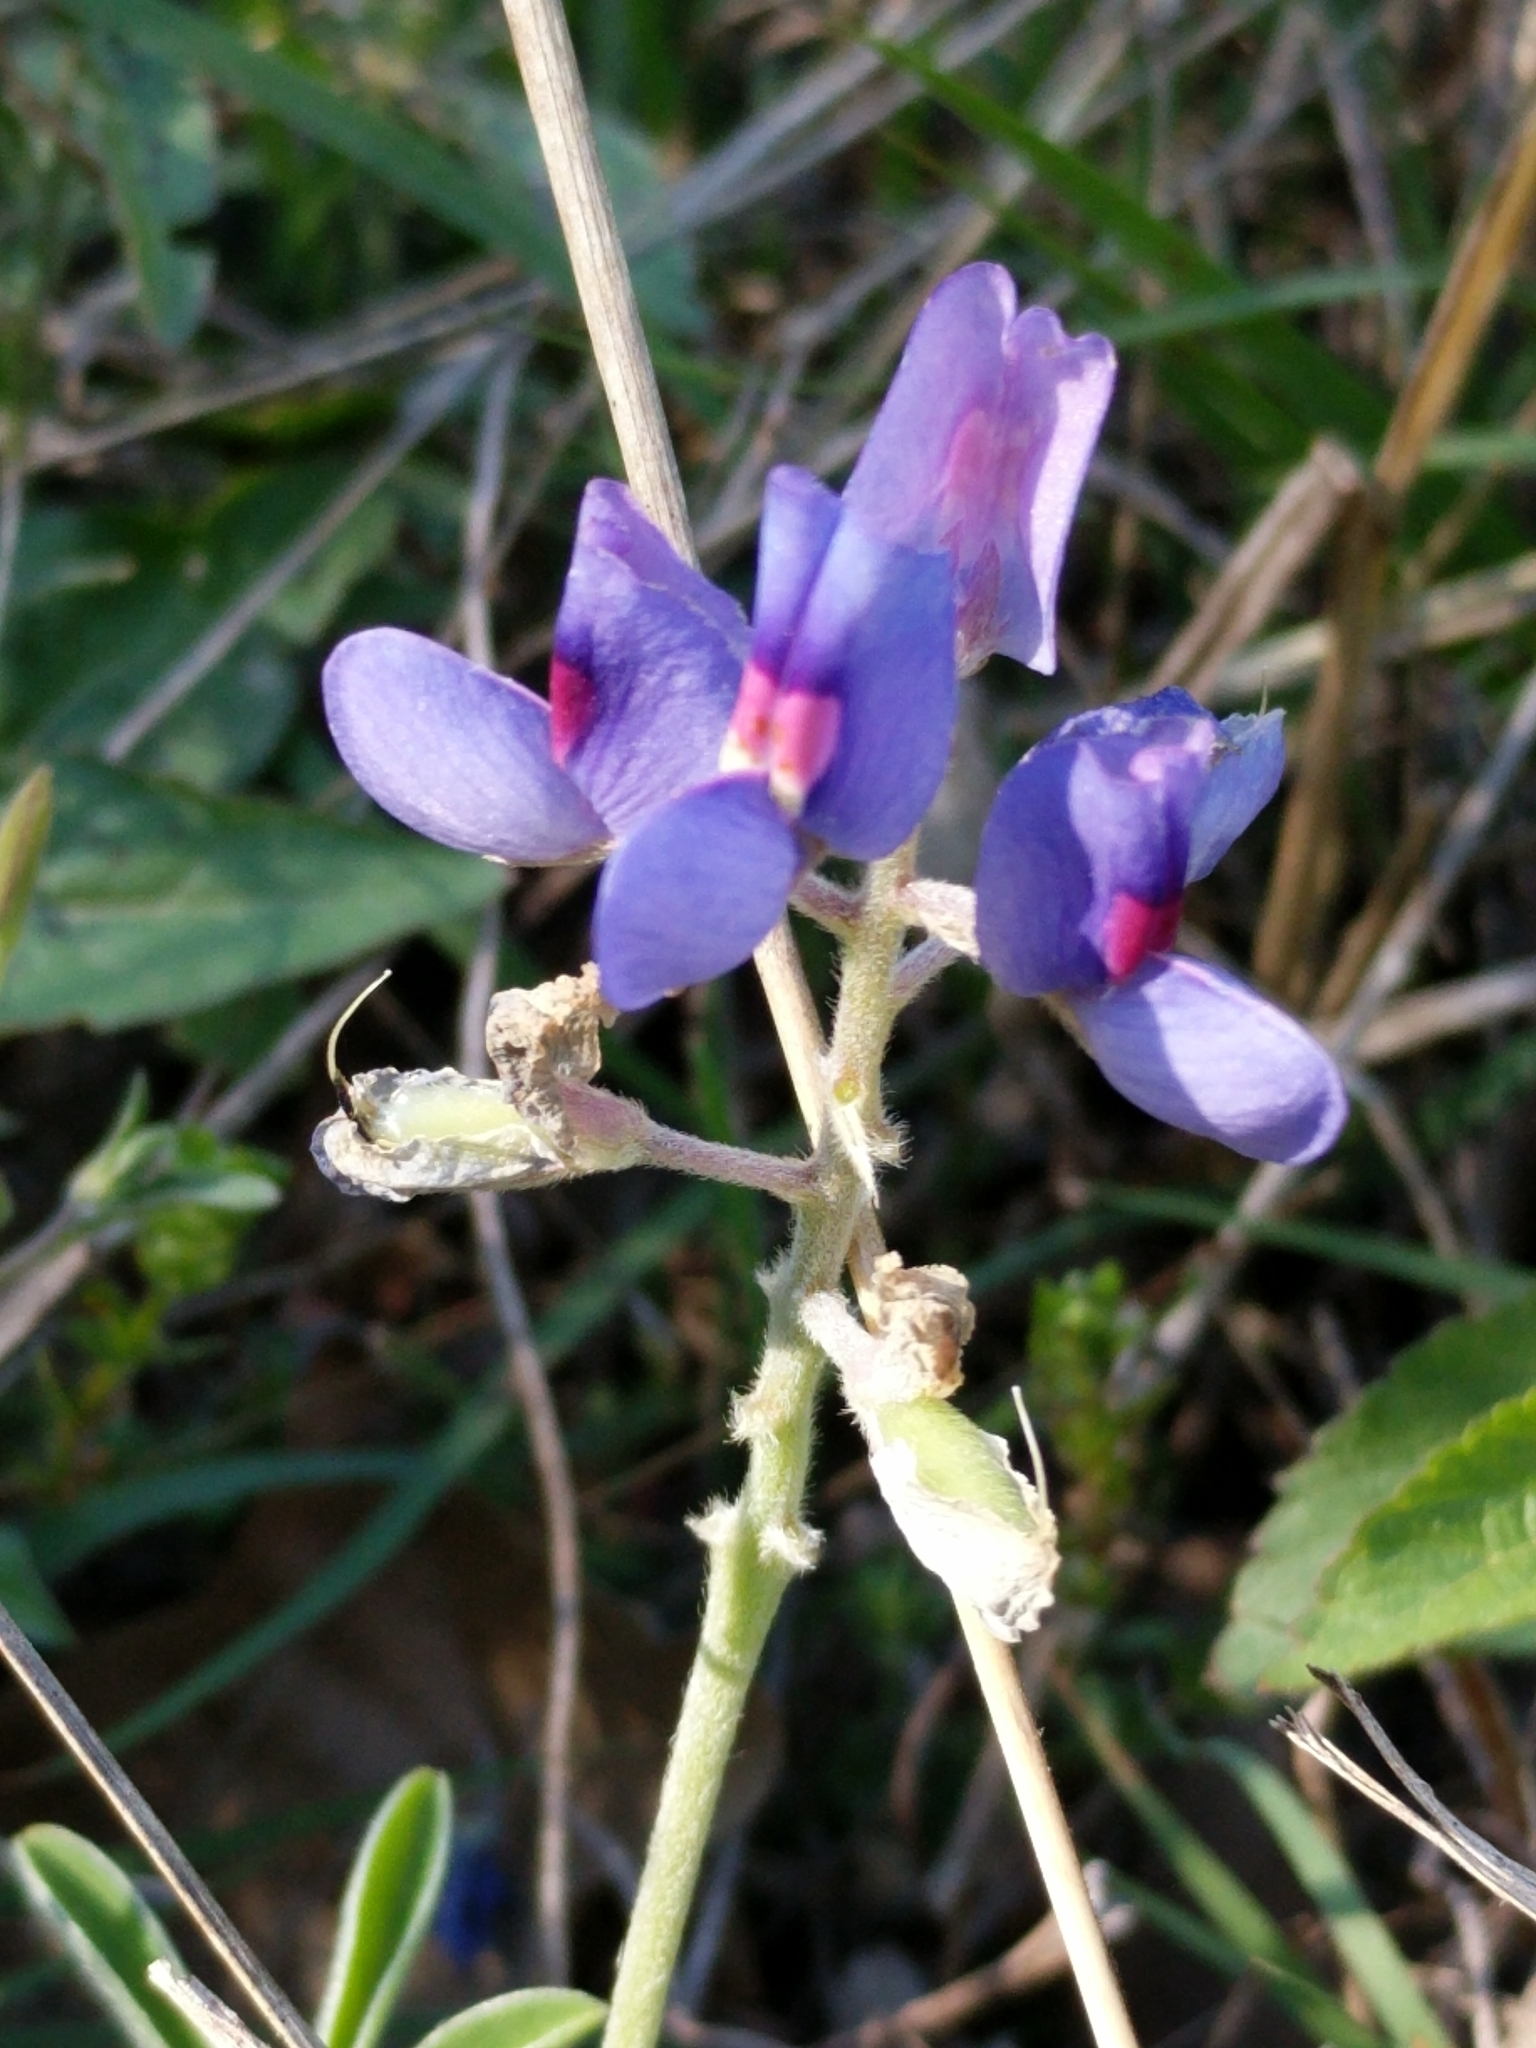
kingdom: Plantae
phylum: Tracheophyta
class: Magnoliopsida
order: Fabales
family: Fabaceae
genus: Lupinus
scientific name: Lupinus texensis
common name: Texas bluebonnet
